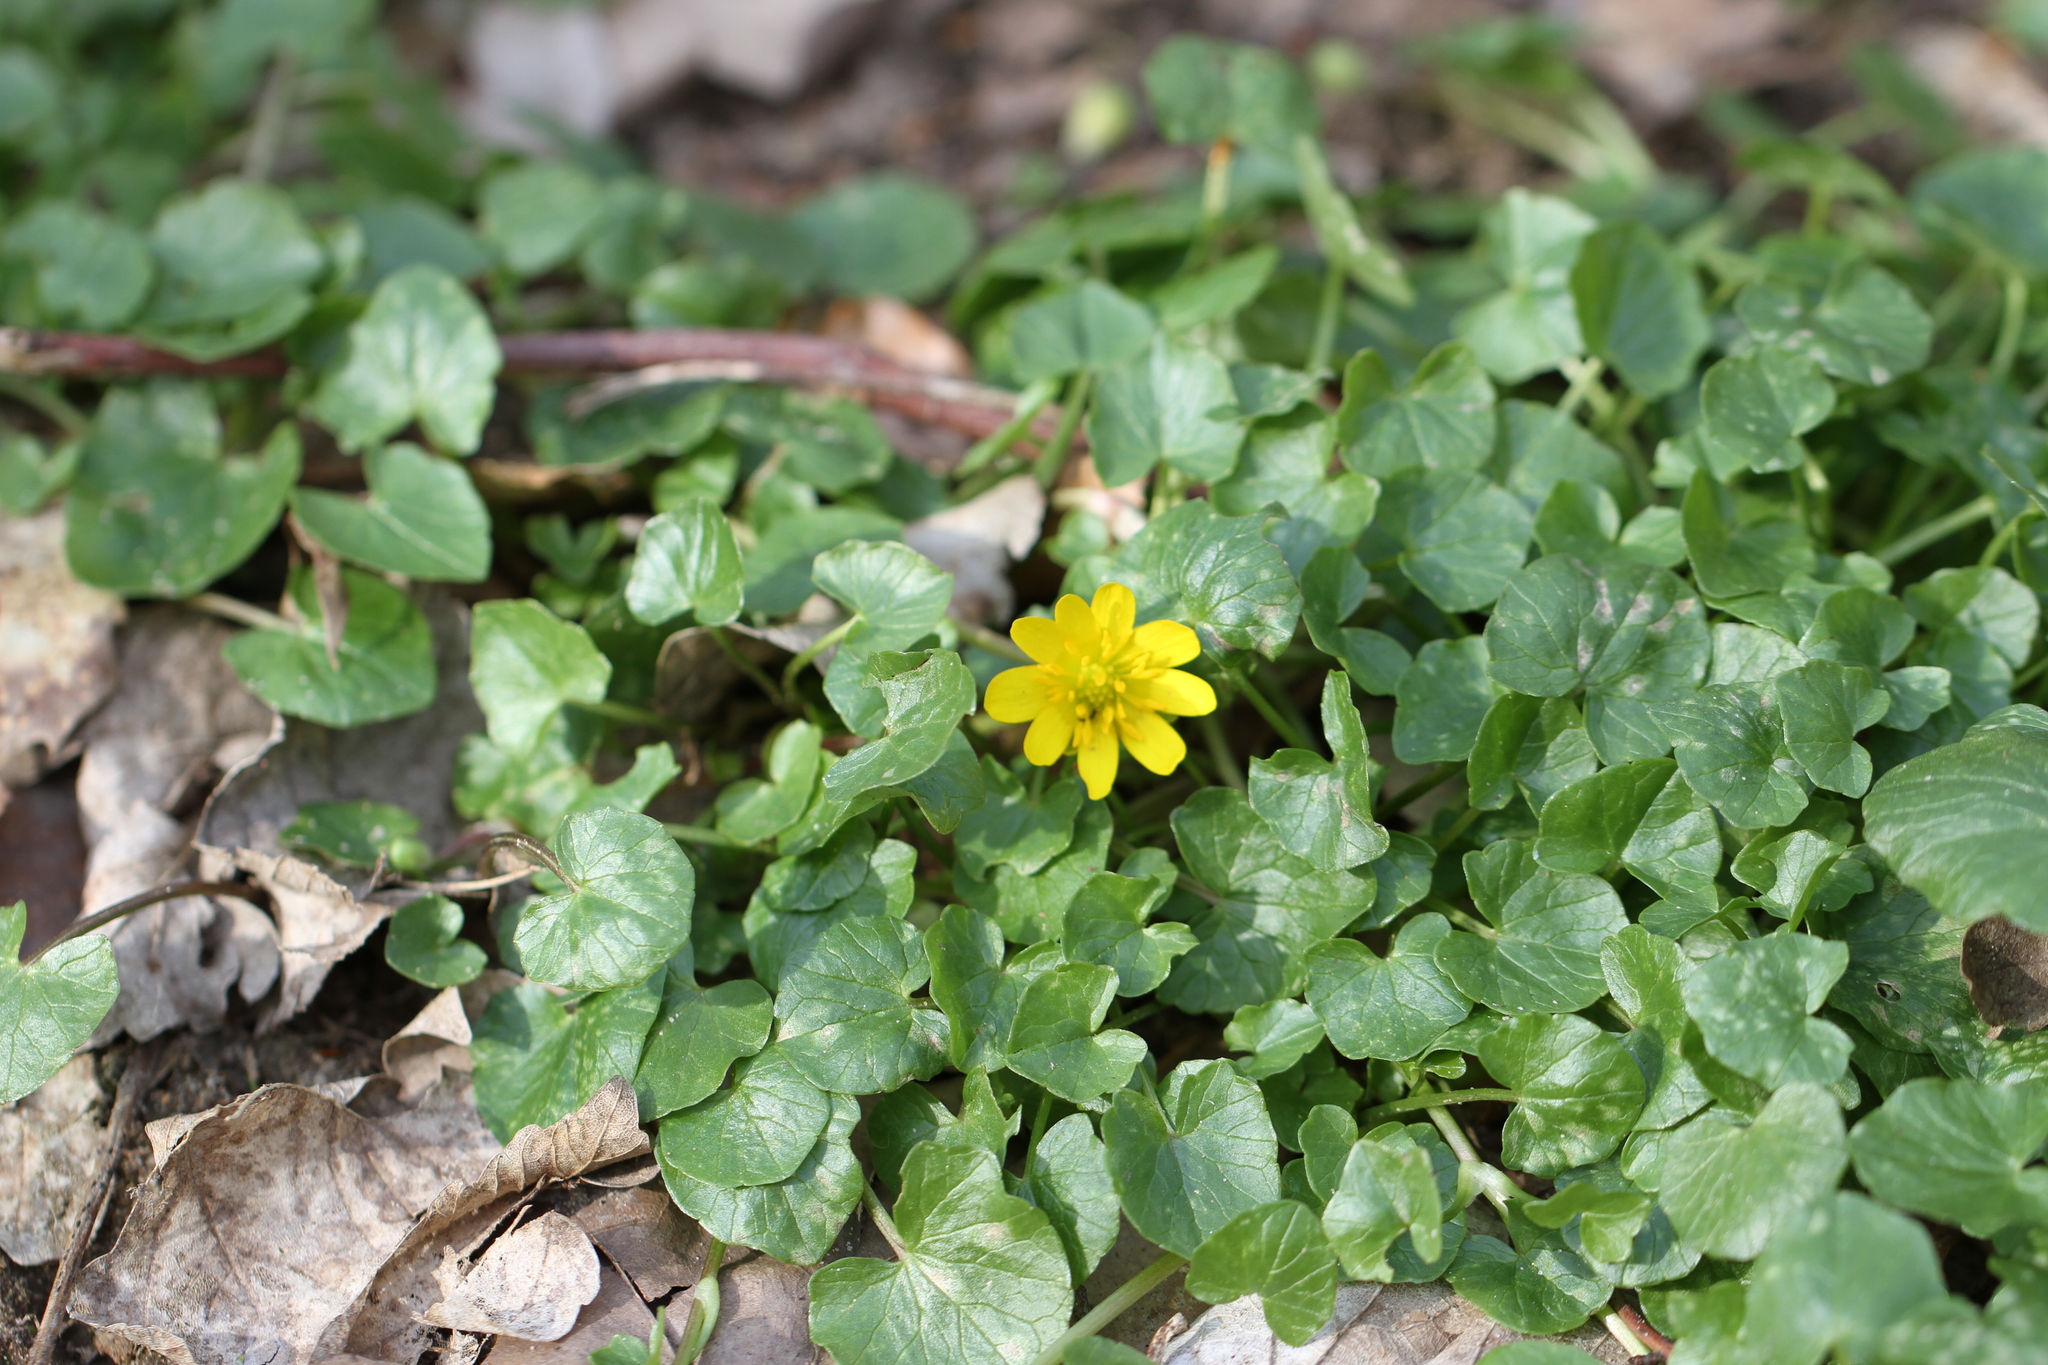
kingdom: Plantae
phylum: Tracheophyta
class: Magnoliopsida
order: Ranunculales
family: Ranunculaceae
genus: Ficaria
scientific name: Ficaria verna
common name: Lesser celandine
